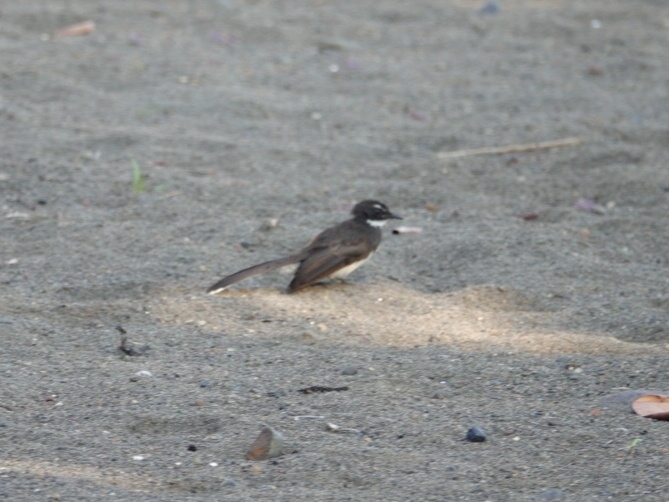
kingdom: Animalia
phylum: Chordata
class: Aves
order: Passeriformes
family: Rhipiduridae
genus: Rhipidura
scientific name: Rhipidura javanica
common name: Pied fantail
